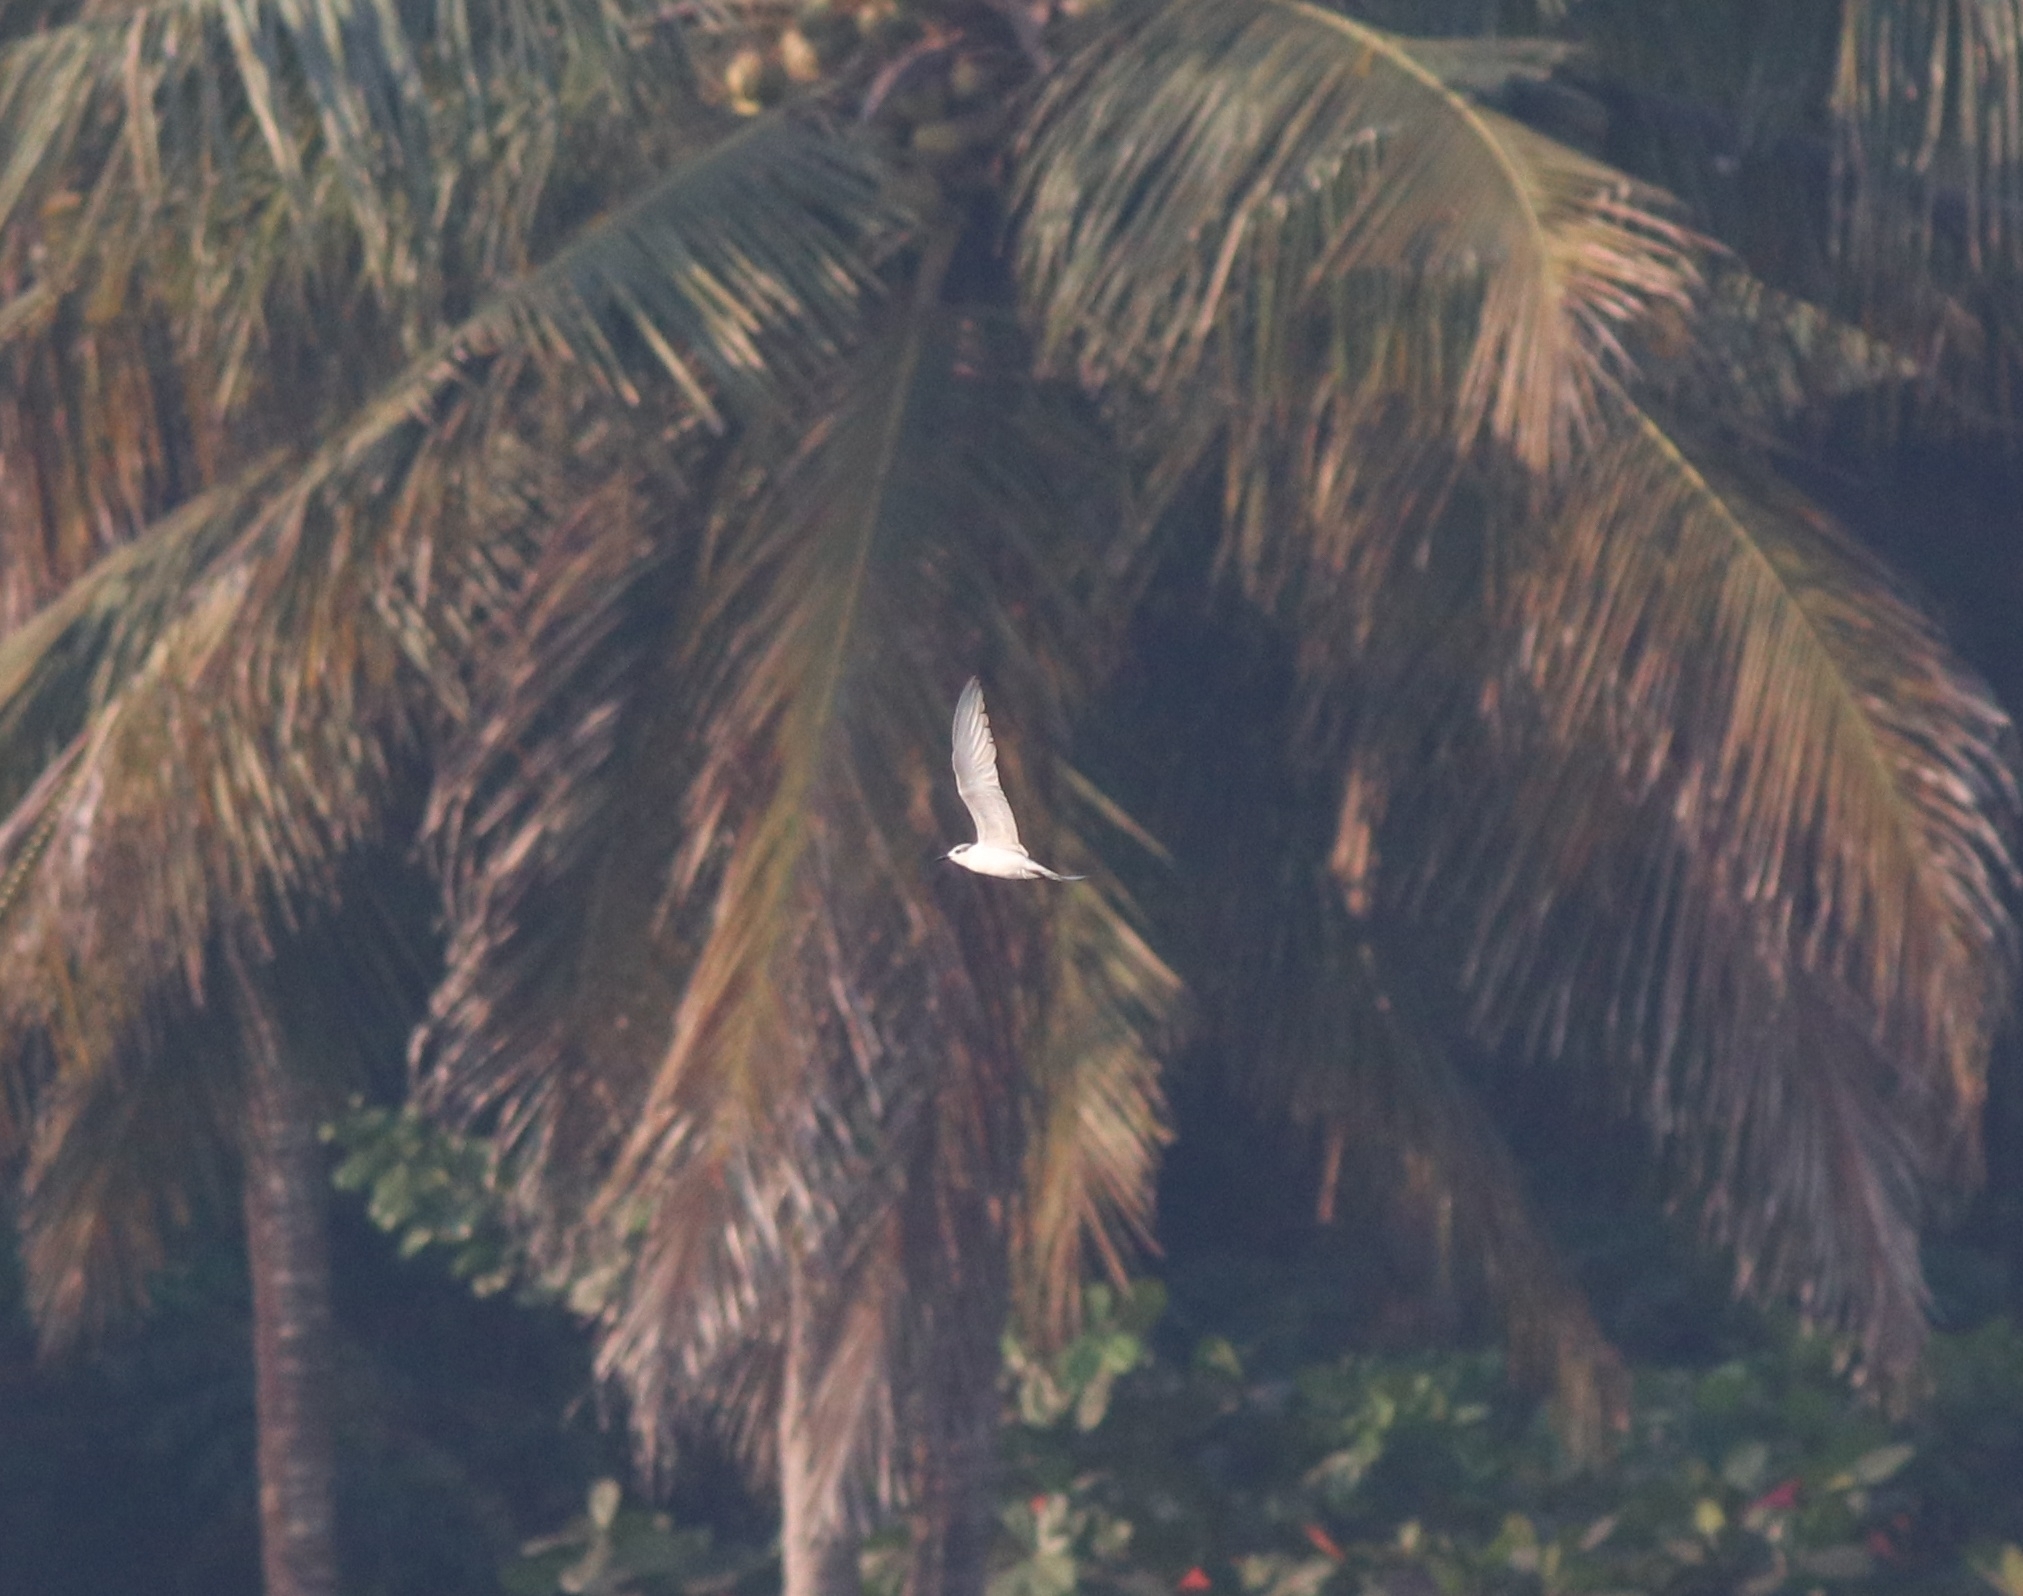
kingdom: Animalia
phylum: Chordata
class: Aves
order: Charadriiformes
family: Laridae
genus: Chlidonias
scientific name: Chlidonias hybrida
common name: Whiskered tern
